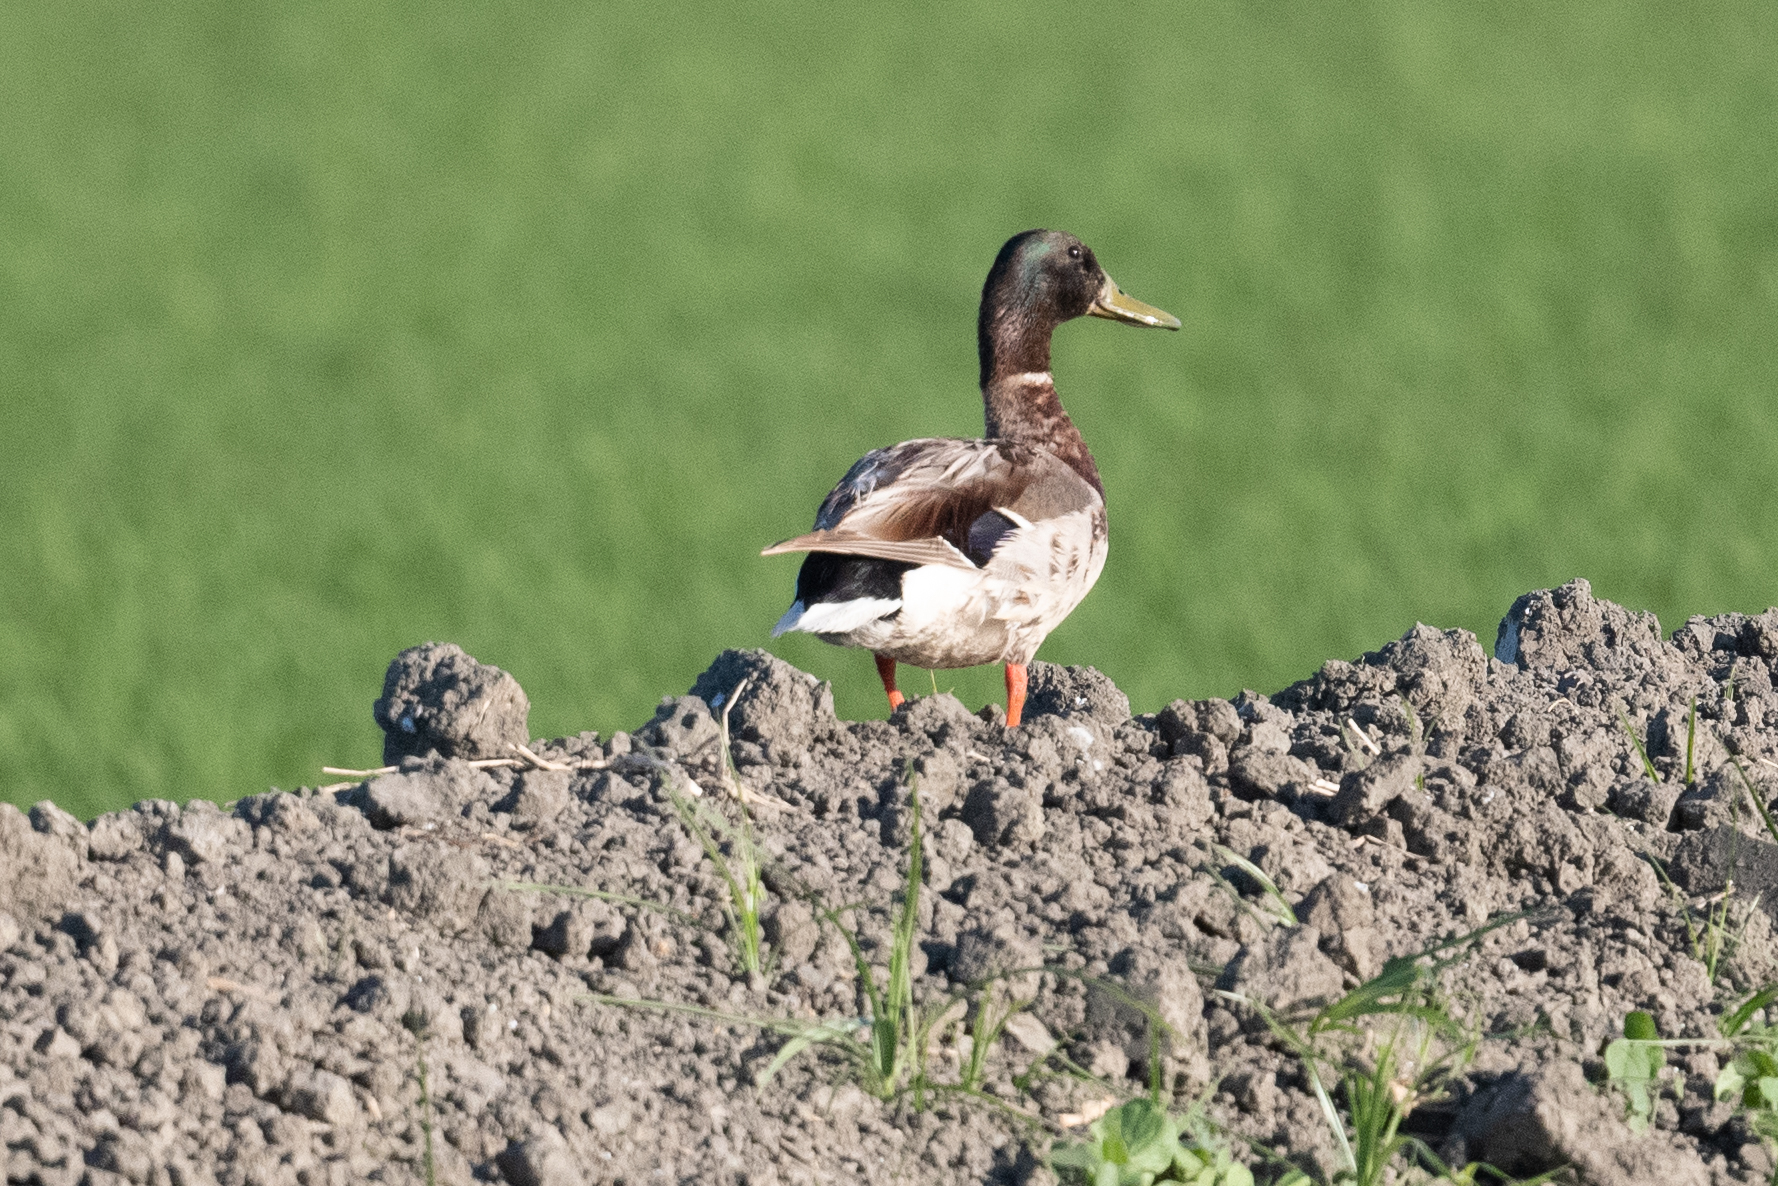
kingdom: Animalia
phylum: Chordata
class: Aves
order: Anseriformes
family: Anatidae
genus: Anas
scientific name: Anas platyrhynchos
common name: Mallard
